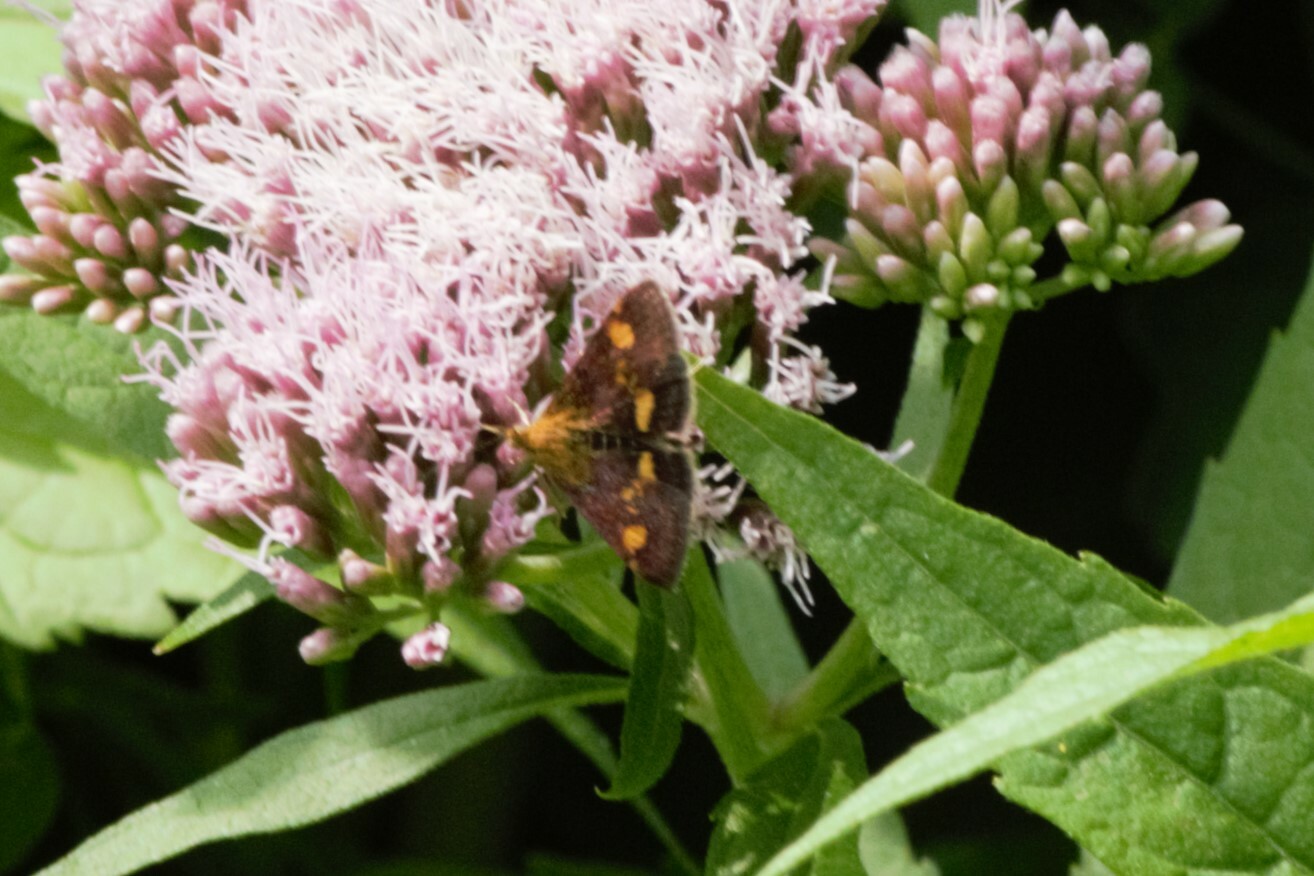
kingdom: Animalia
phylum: Arthropoda
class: Insecta
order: Lepidoptera
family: Crambidae
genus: Pyrausta
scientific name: Pyrausta aurata
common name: Small purple & gold
